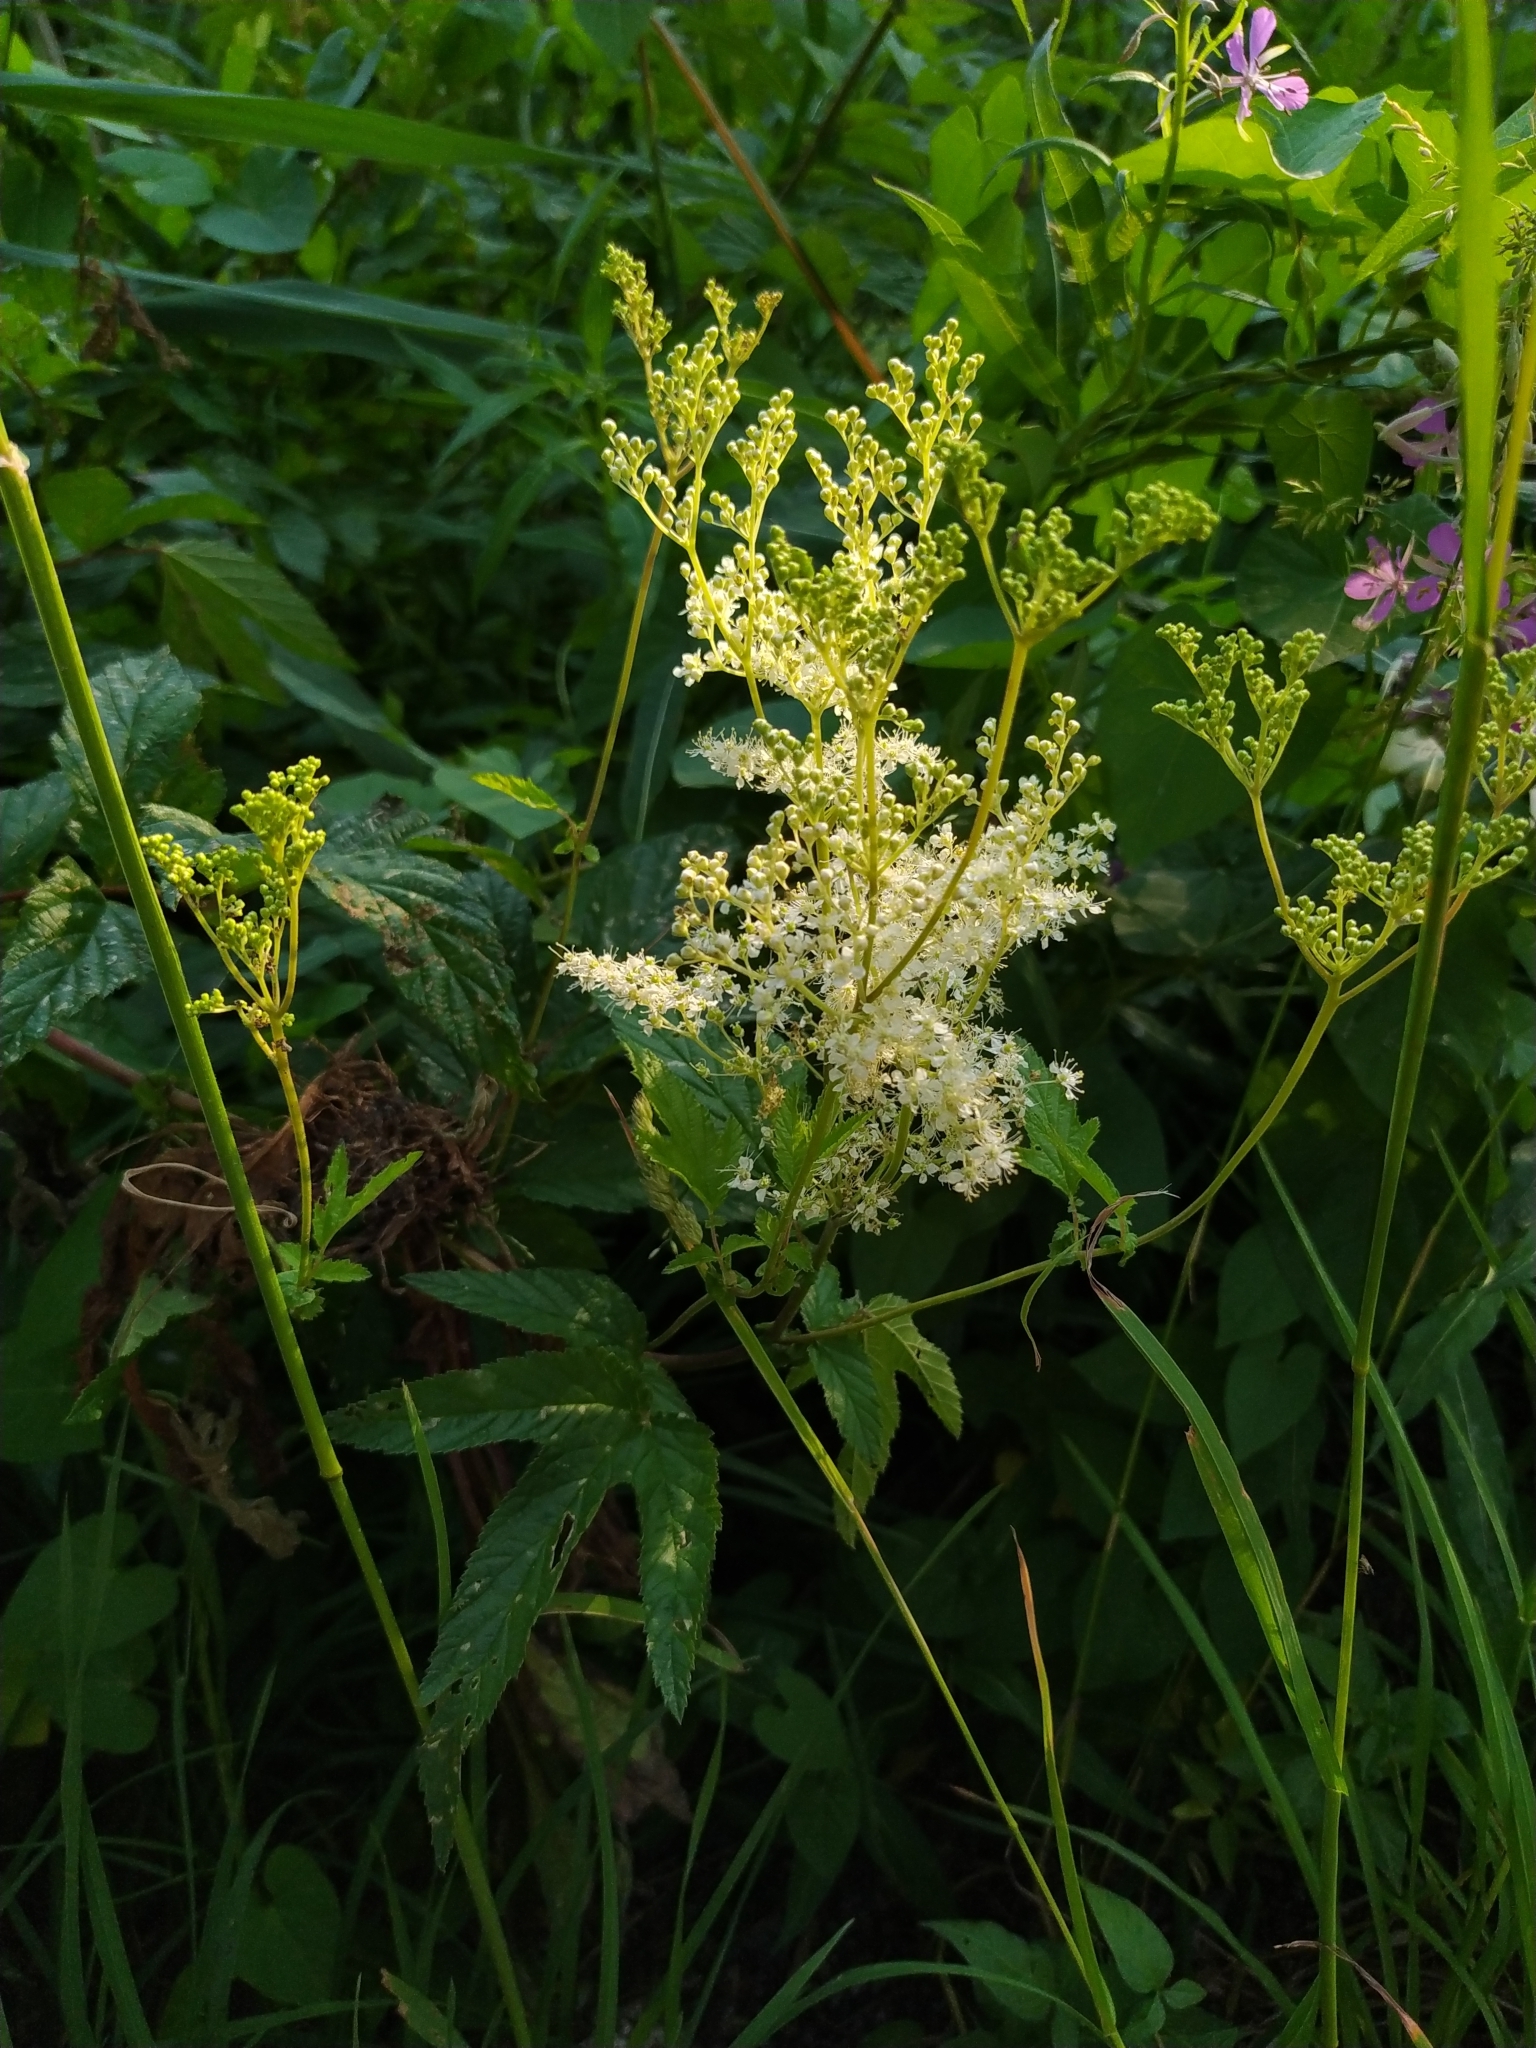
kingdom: Plantae
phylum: Tracheophyta
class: Magnoliopsida
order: Rosales
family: Rosaceae
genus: Filipendula
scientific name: Filipendula ulmaria
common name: Meadowsweet
